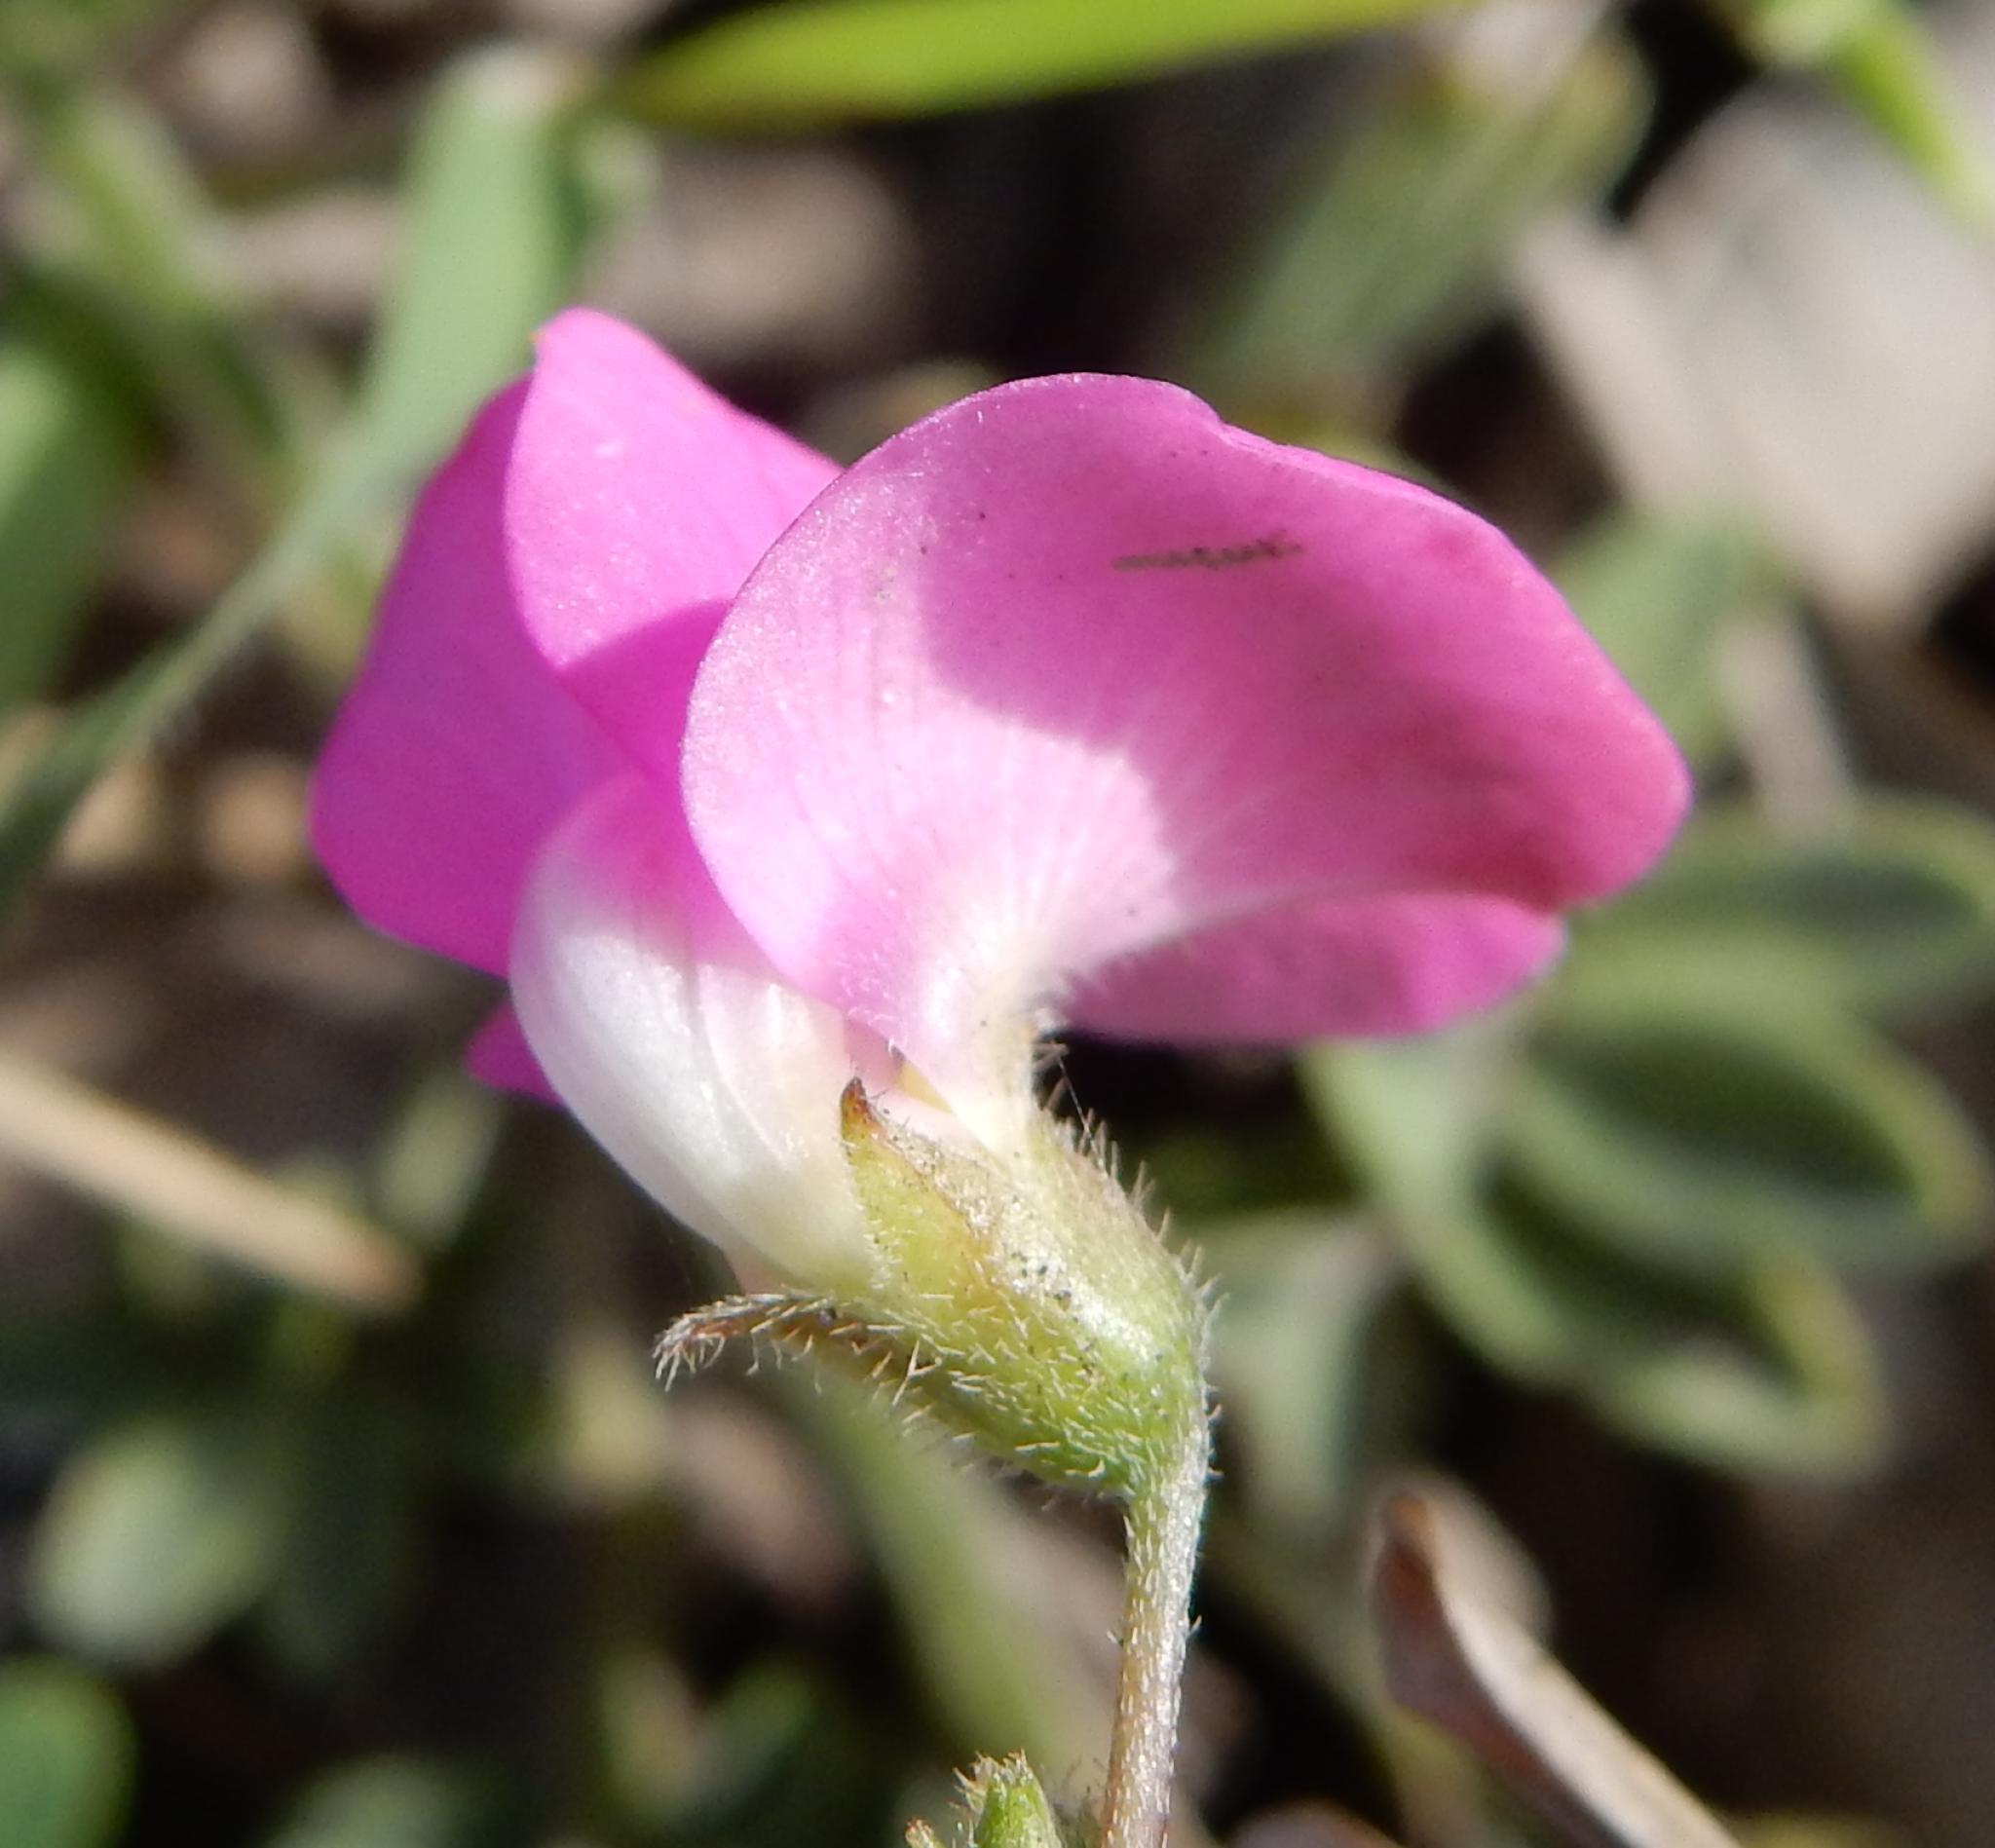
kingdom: Plantae
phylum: Tracheophyta
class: Magnoliopsida
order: Fabales
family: Fabaceae
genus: Tephrosia
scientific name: Tephrosia capensis
